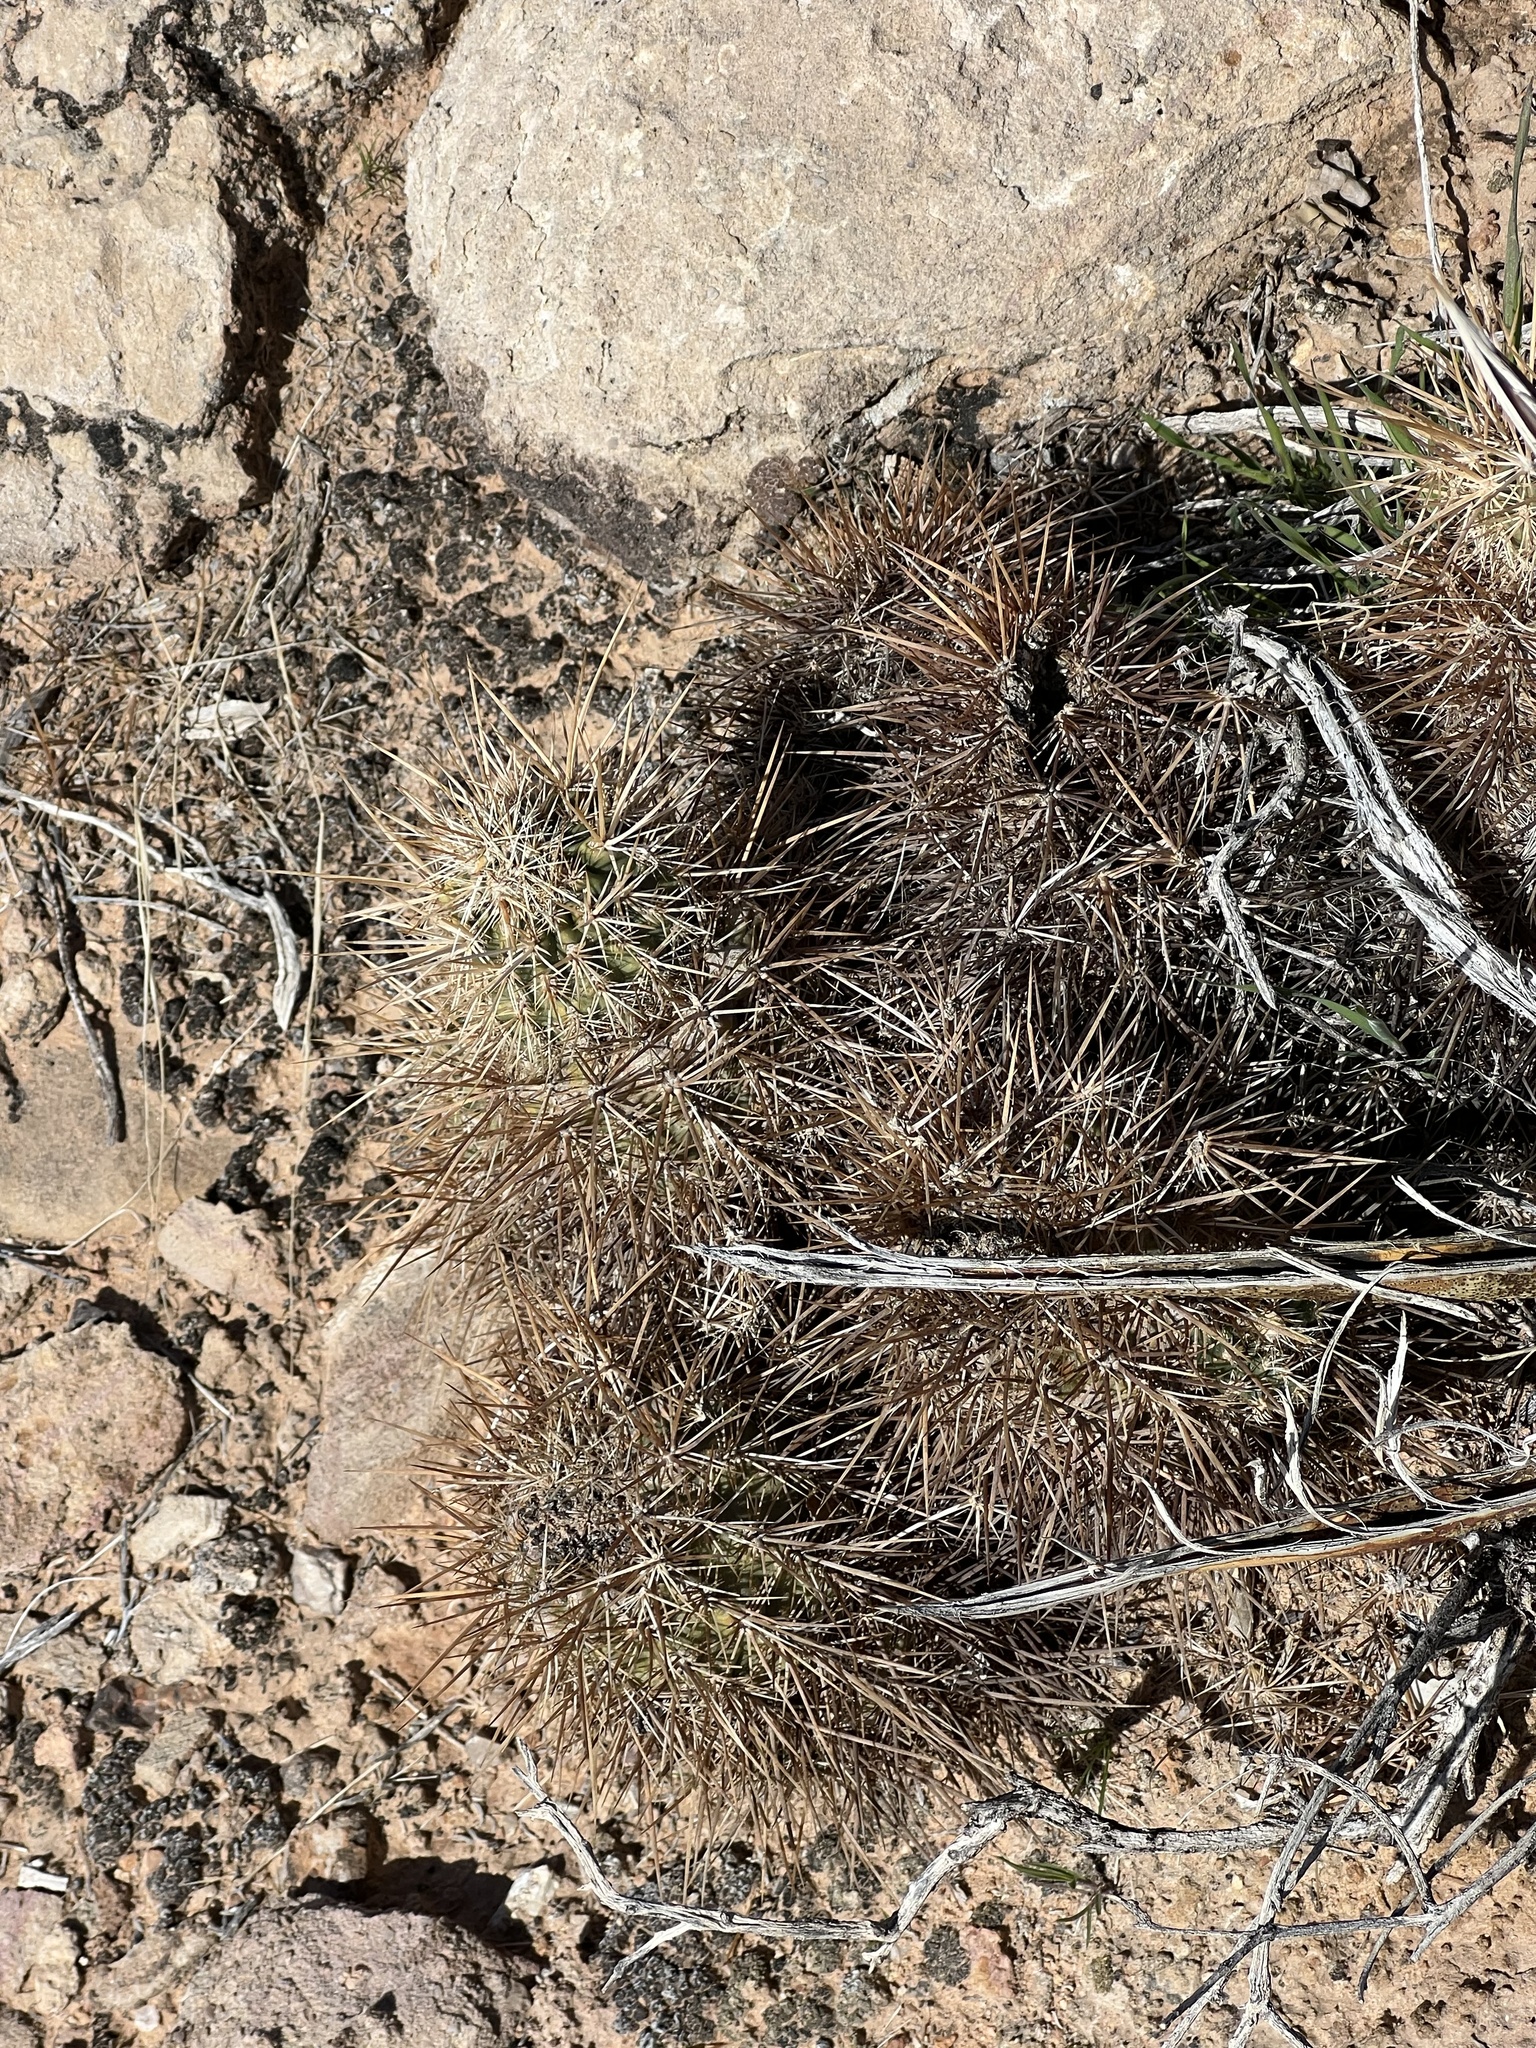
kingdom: Plantae
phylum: Tracheophyta
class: Magnoliopsida
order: Caryophyllales
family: Cactaceae
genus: Echinocereus
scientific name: Echinocereus engelmannii
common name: Engelmann's hedgehog cactus
